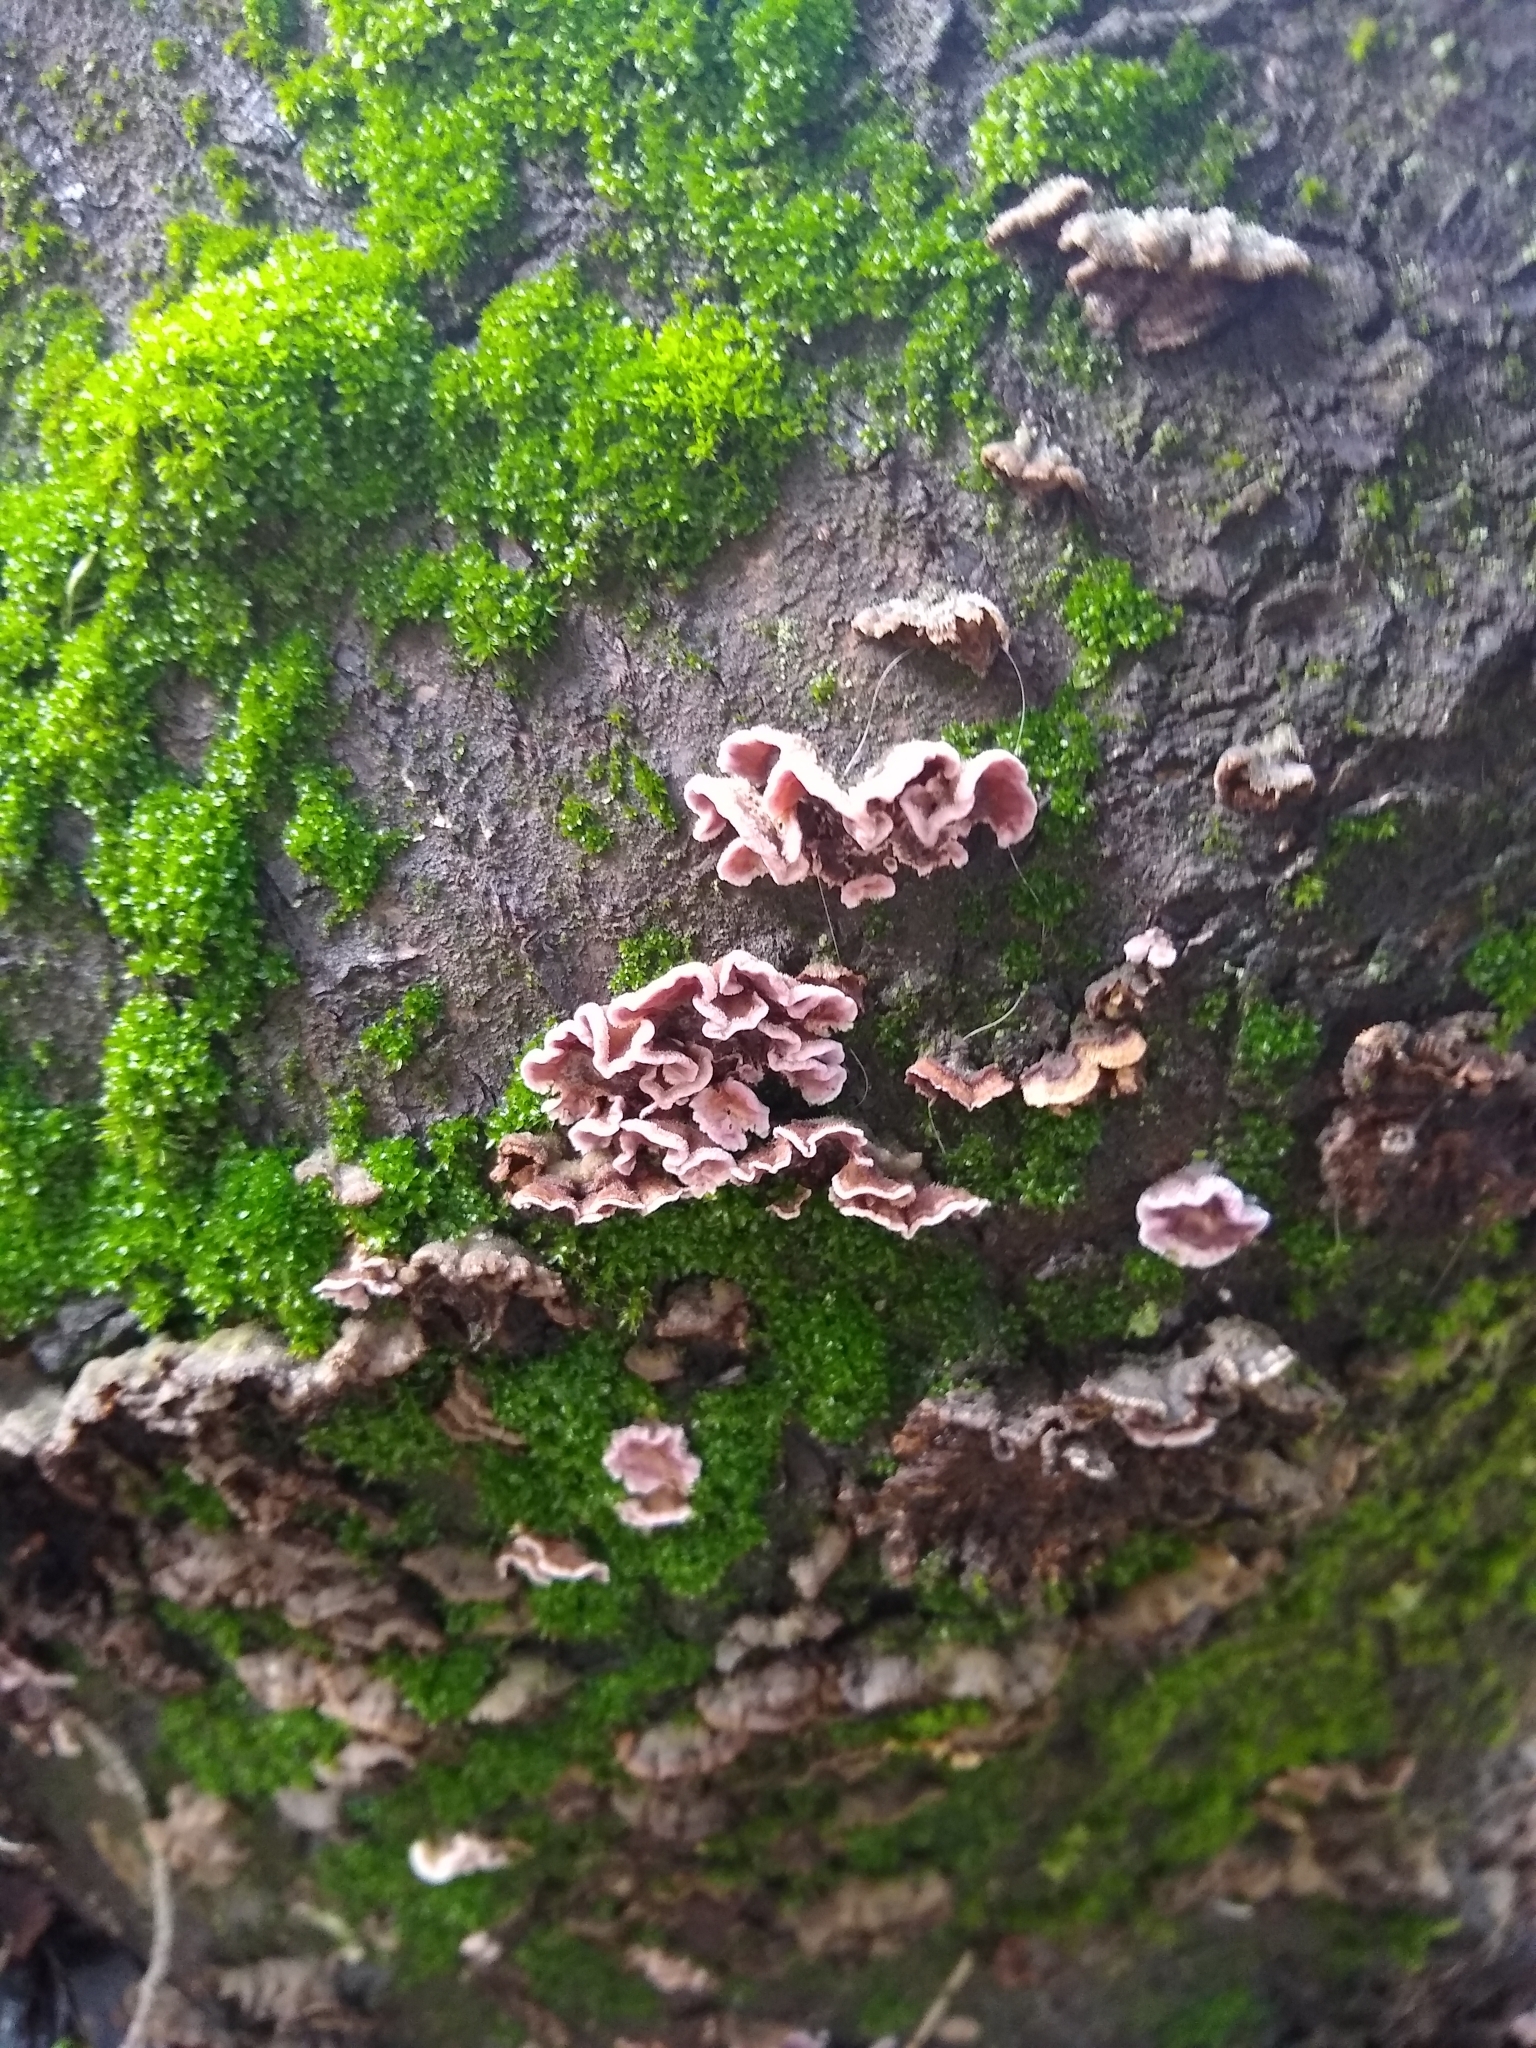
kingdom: Fungi
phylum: Basidiomycota
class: Agaricomycetes
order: Agaricales
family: Cyphellaceae
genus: Chondrostereum
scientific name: Chondrostereum purpureum
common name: Silver leaf disease
